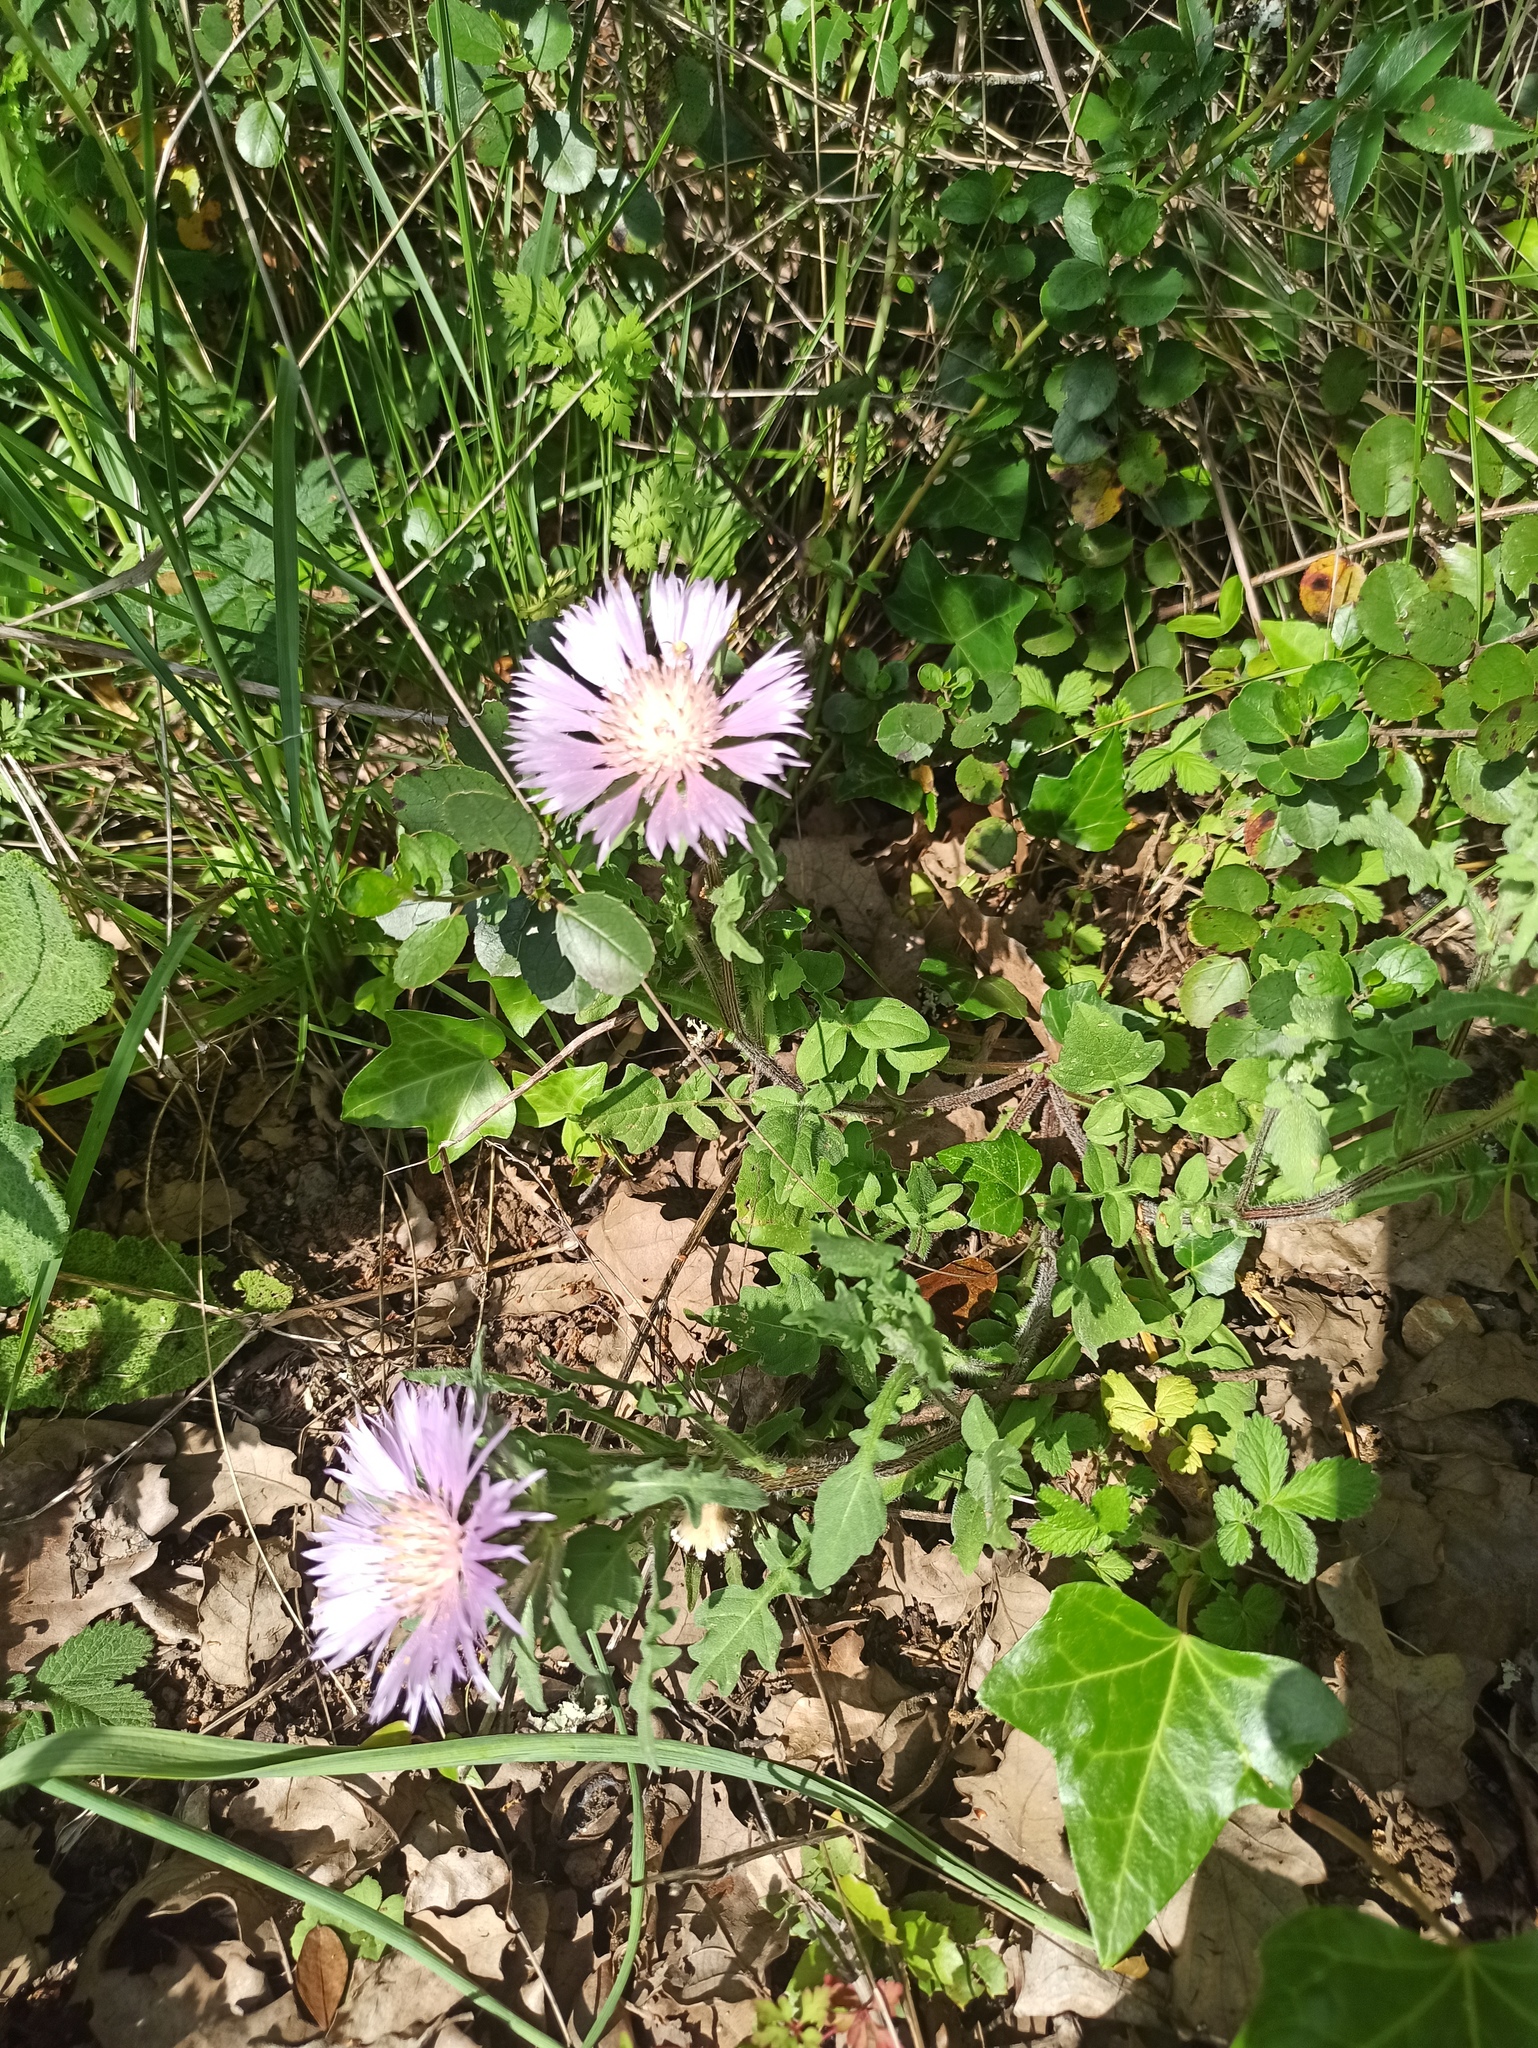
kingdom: Plantae
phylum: Tracheophyta
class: Magnoliopsida
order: Asterales
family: Asteraceae
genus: Centaurea
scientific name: Centaurea pullata
